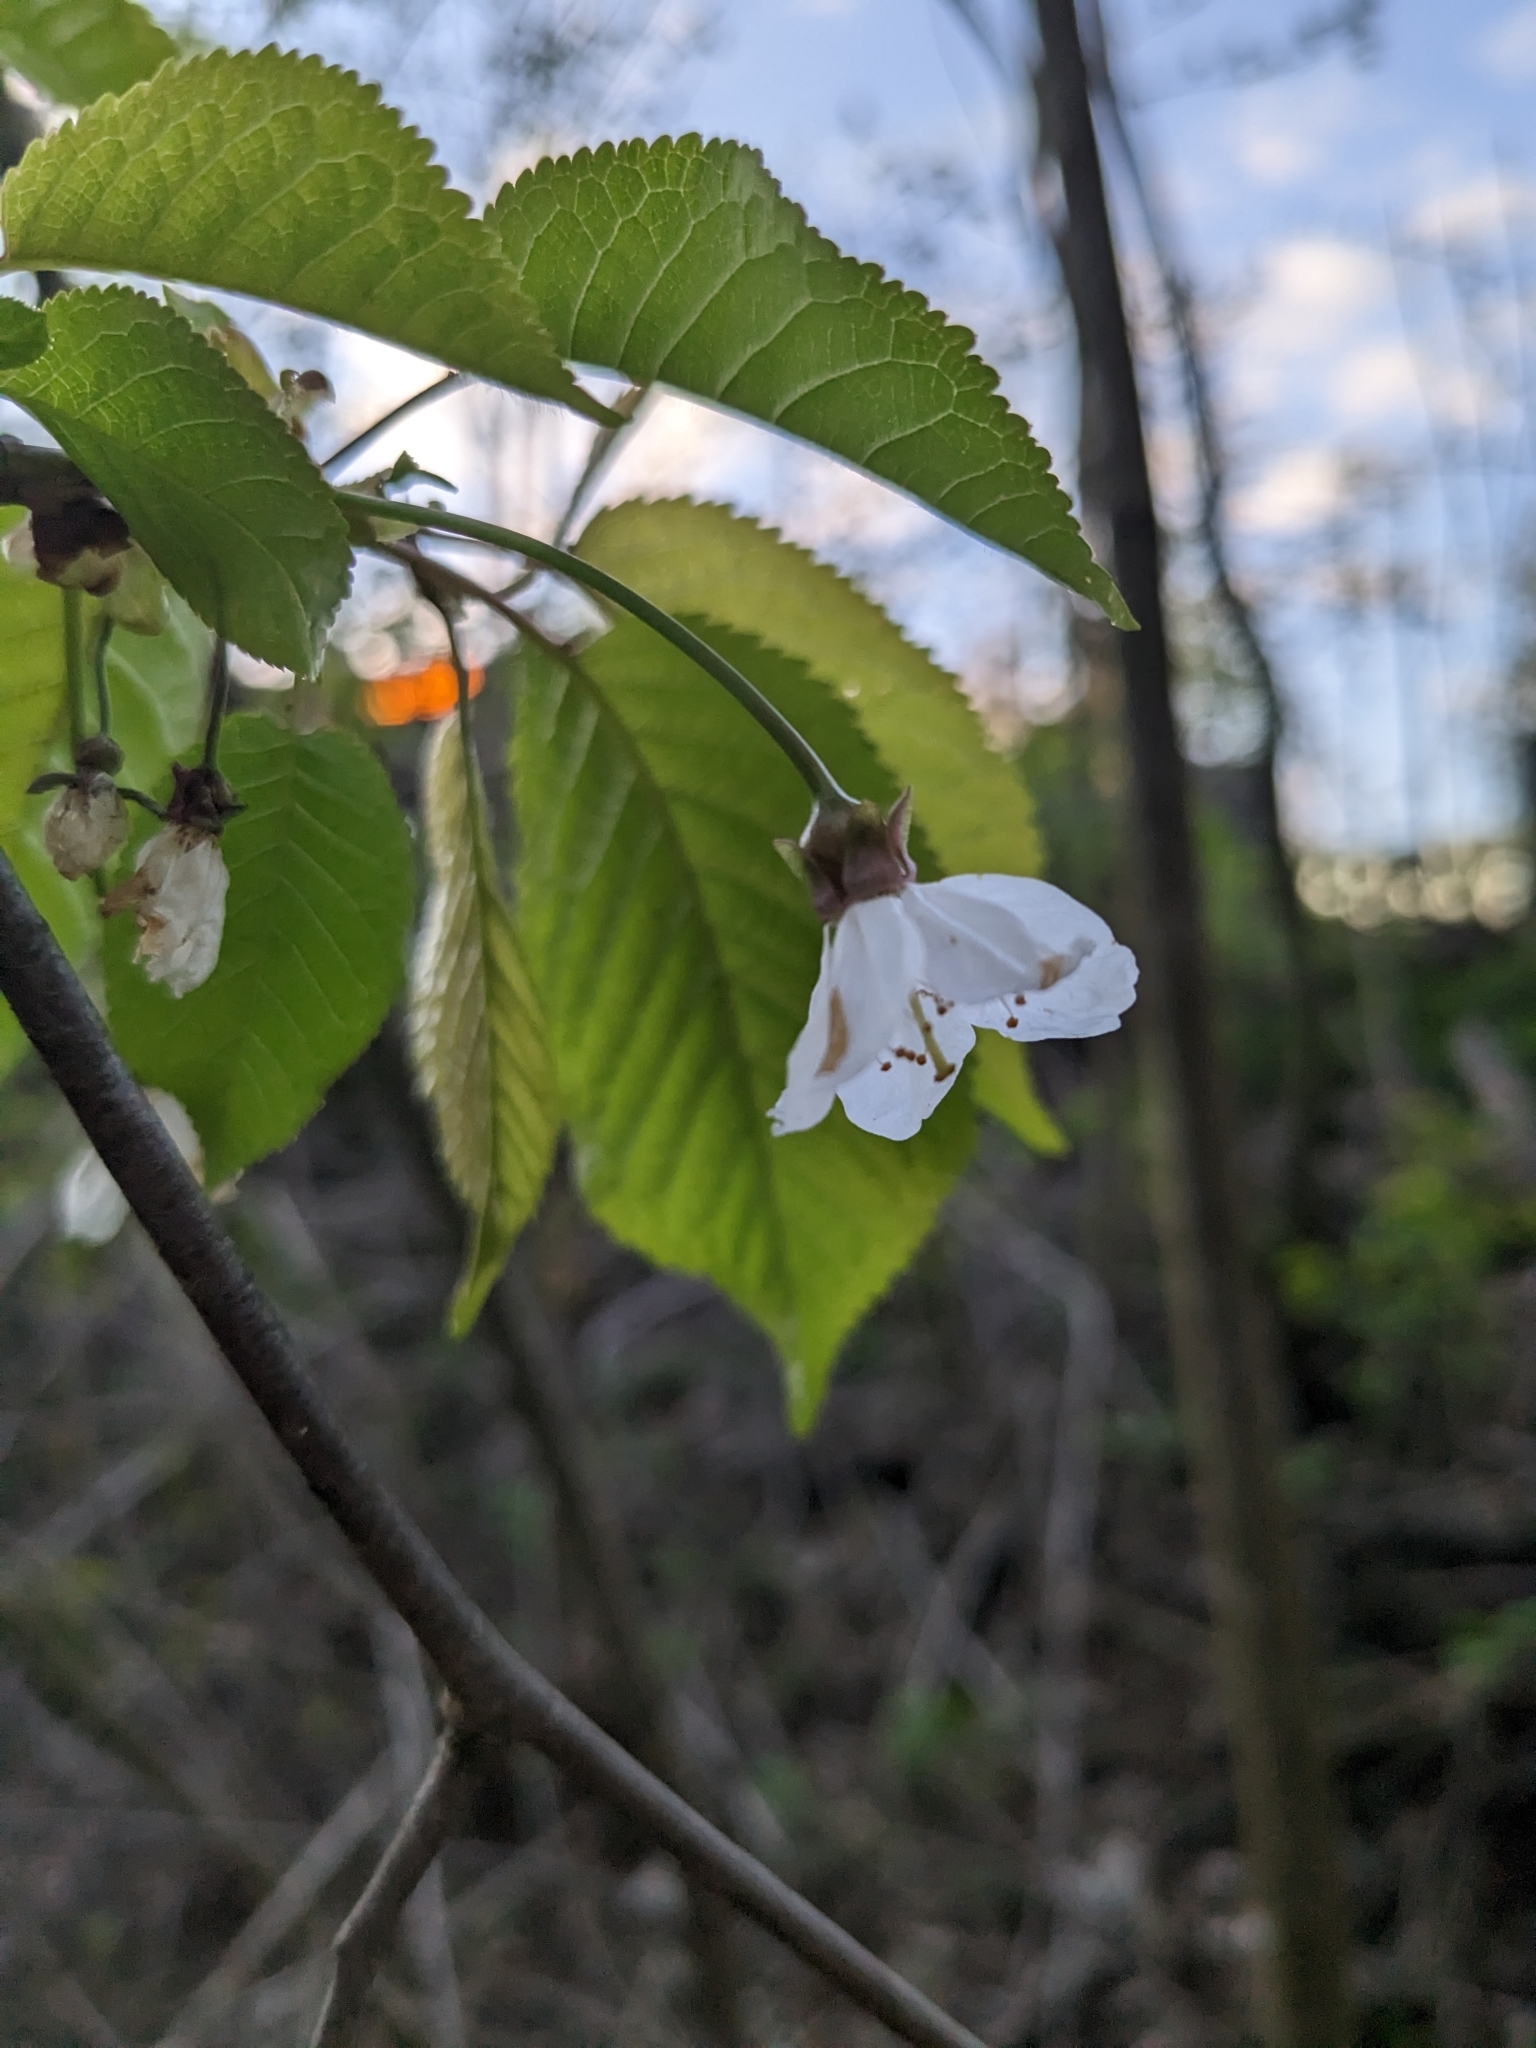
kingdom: Plantae
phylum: Tracheophyta
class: Magnoliopsida
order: Rosales
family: Rosaceae
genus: Prunus
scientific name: Prunus avium
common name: Sweet cherry
